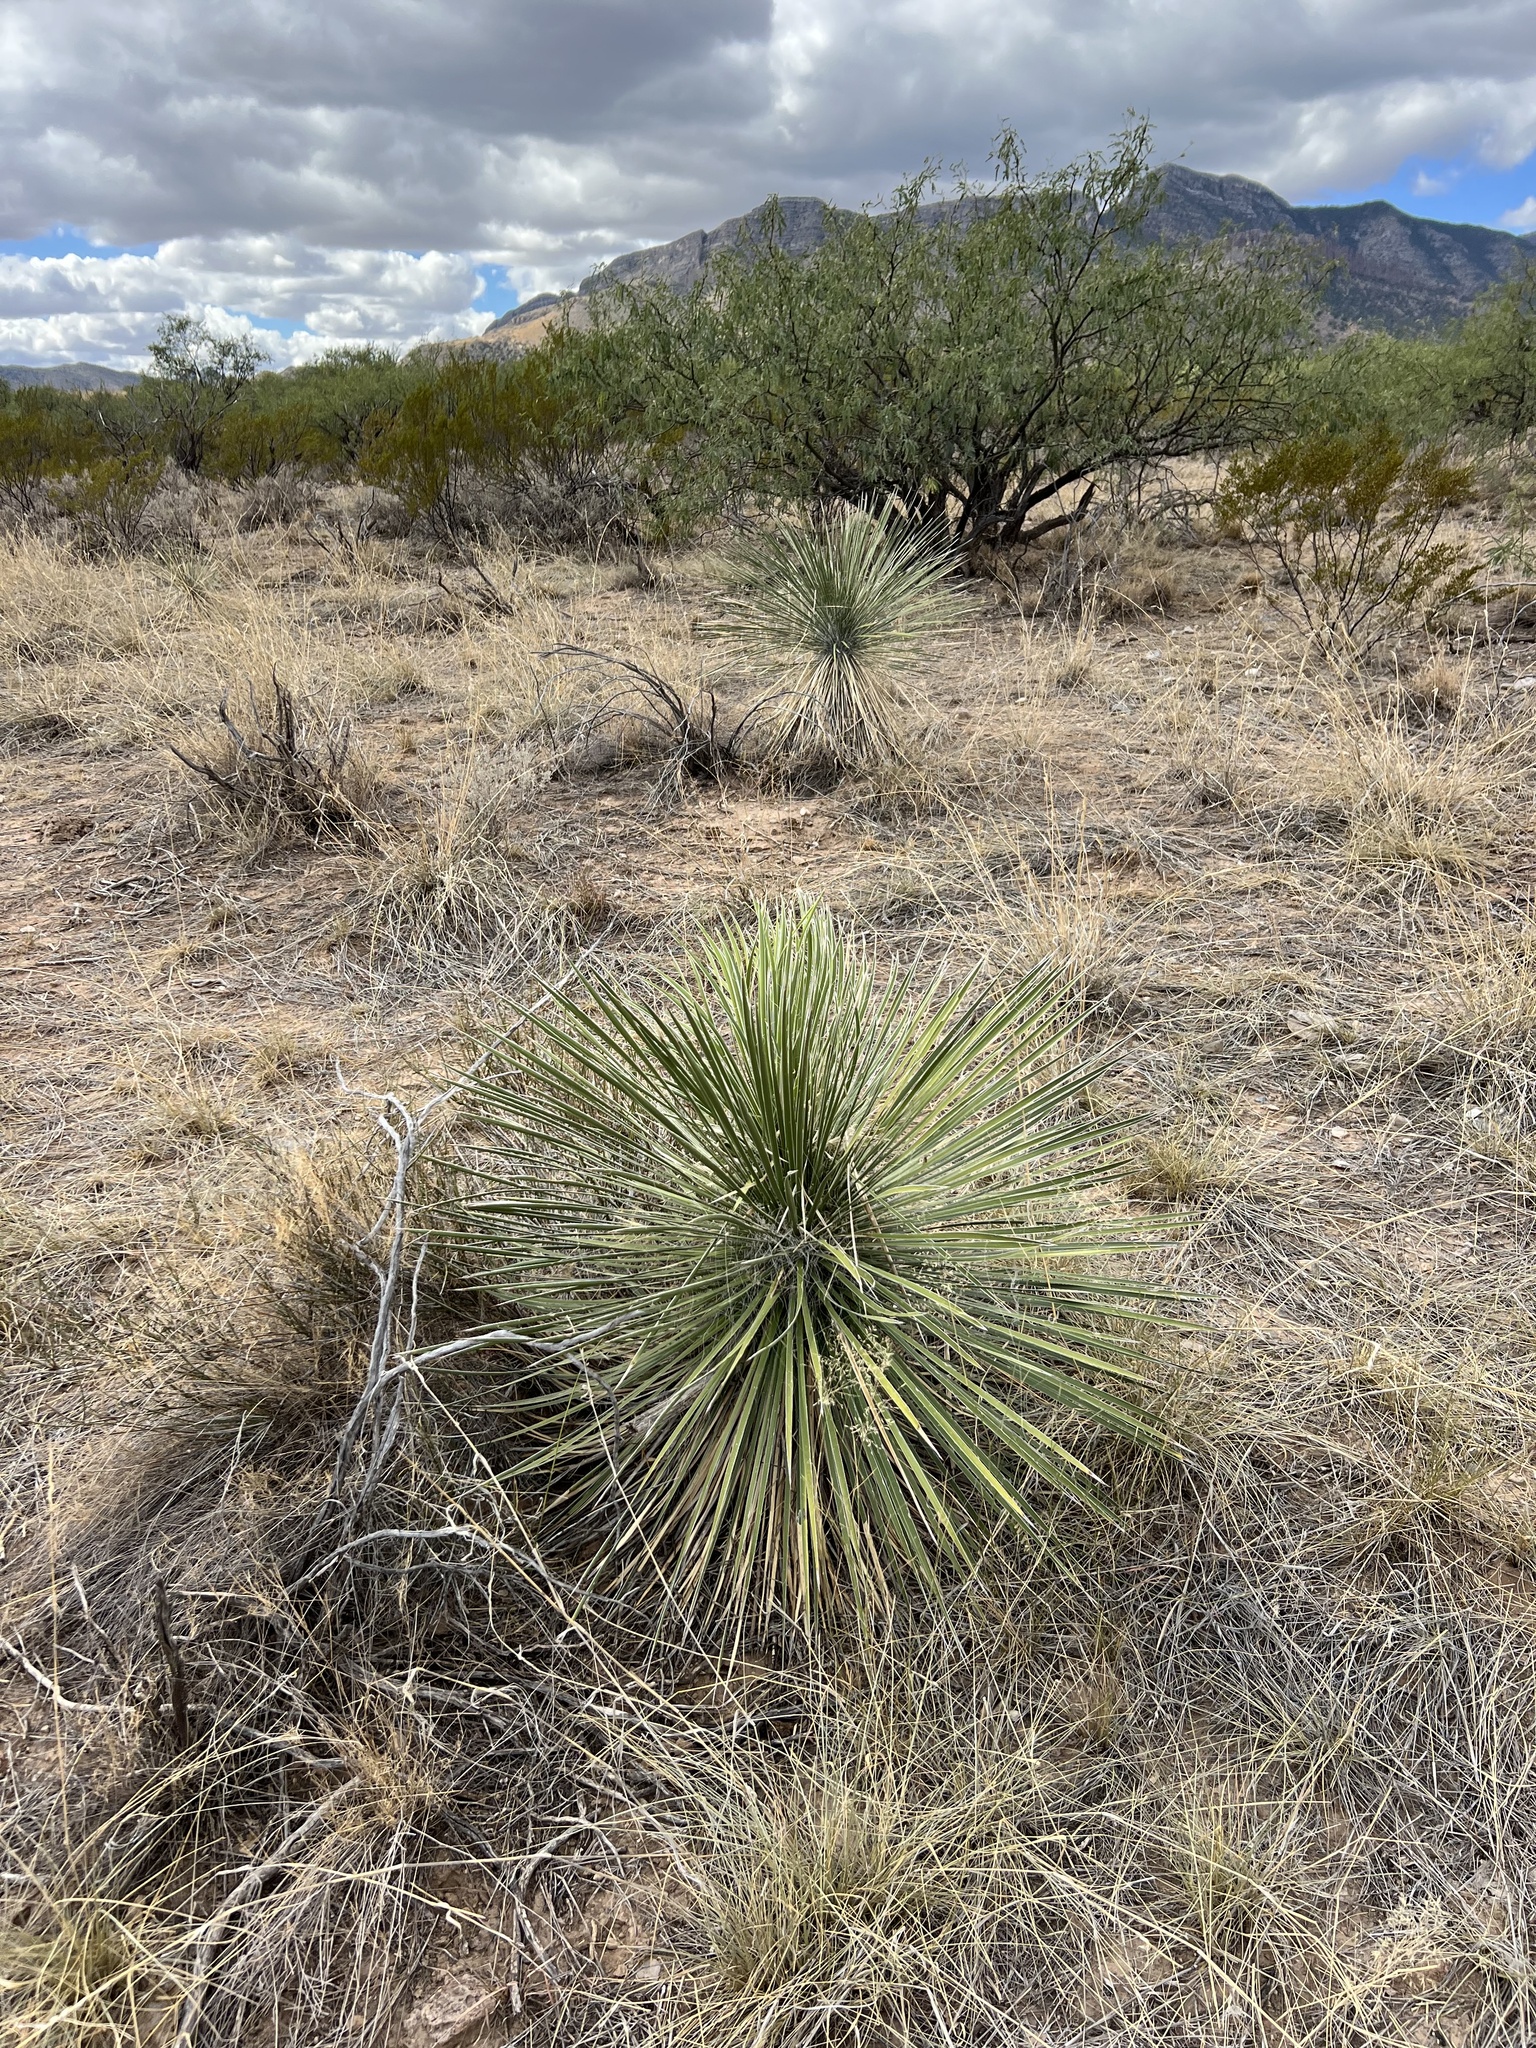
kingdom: Plantae
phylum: Tracheophyta
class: Liliopsida
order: Asparagales
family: Asparagaceae
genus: Yucca
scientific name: Yucca elata
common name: Palmella
